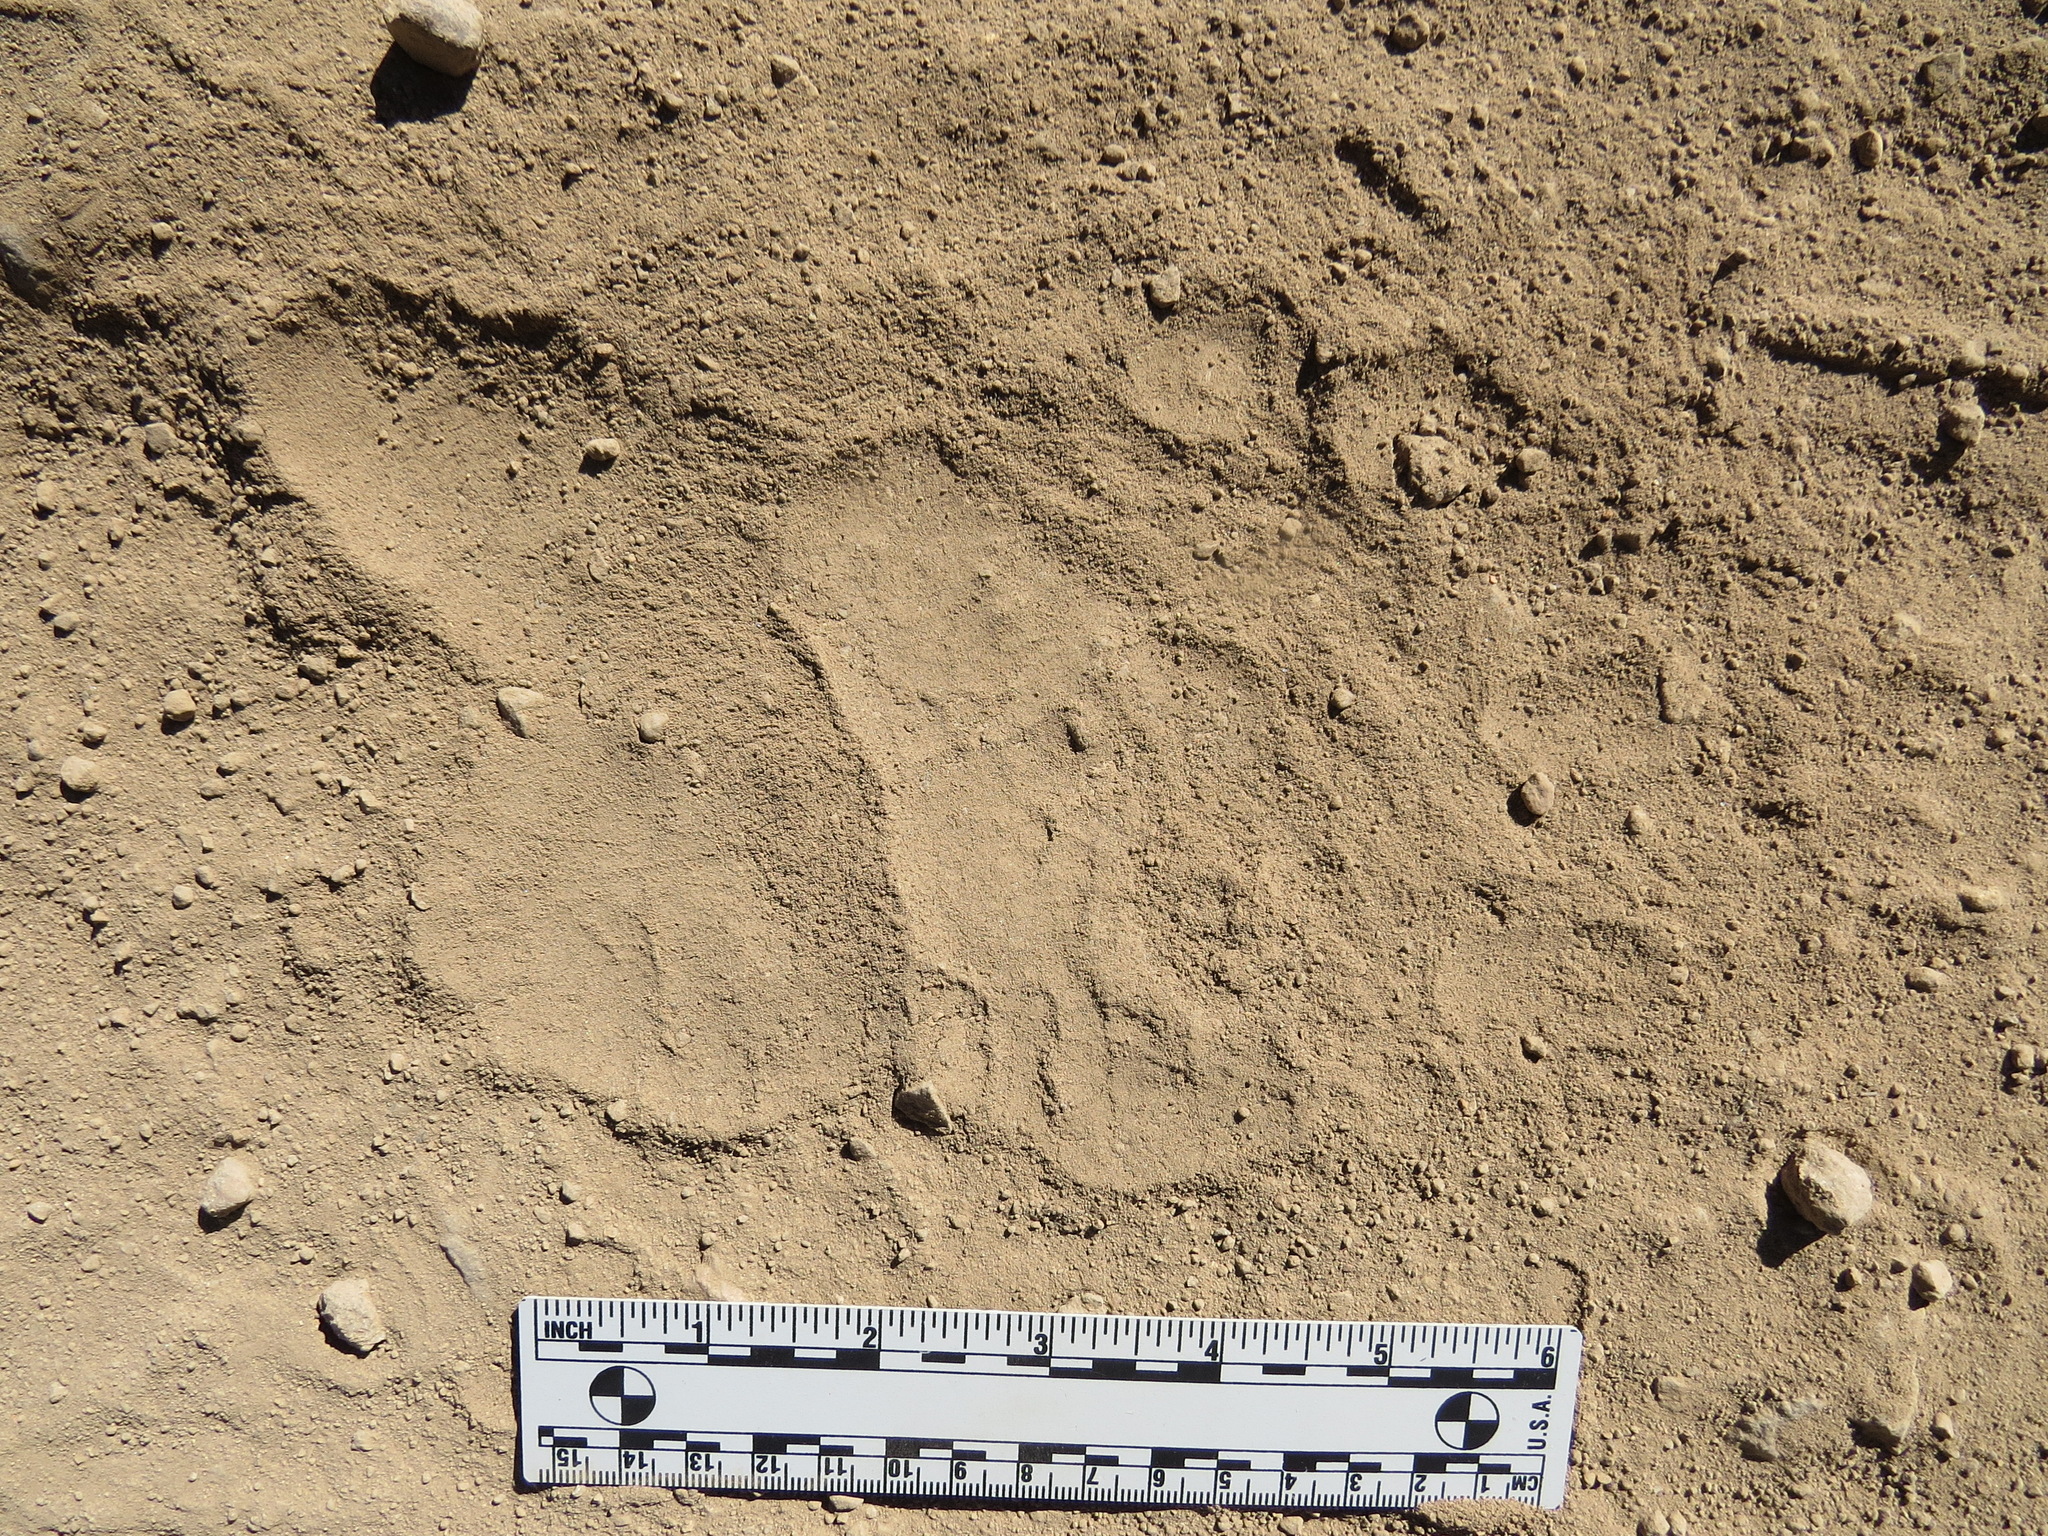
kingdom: Animalia
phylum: Chordata
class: Mammalia
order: Carnivora
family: Ursidae
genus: Ursus
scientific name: Ursus americanus
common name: American black bear
